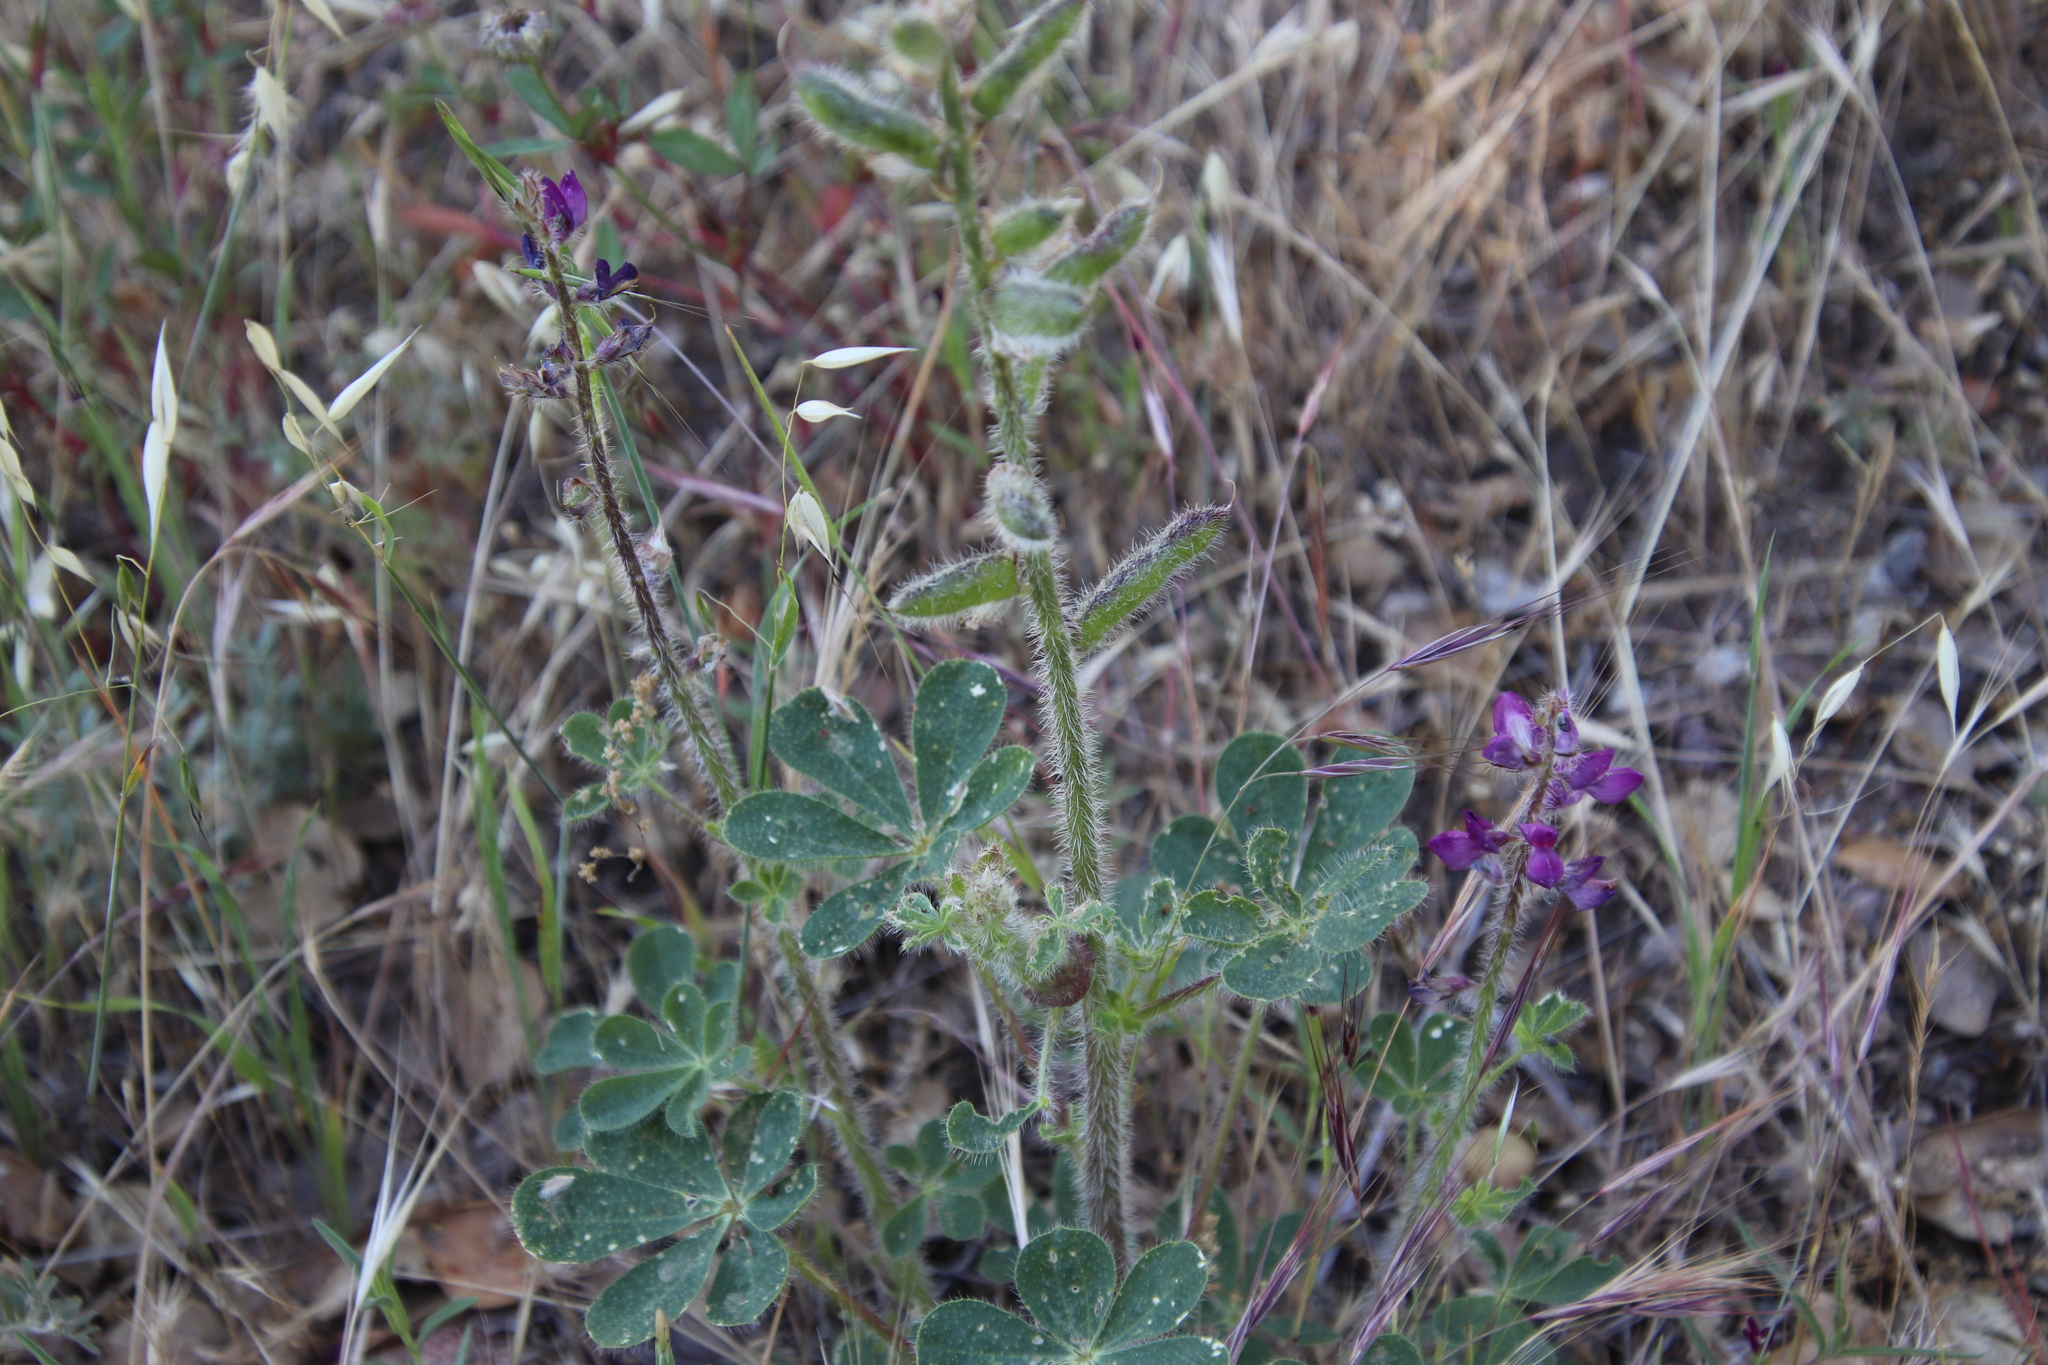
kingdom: Plantae
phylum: Tracheophyta
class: Magnoliopsida
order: Fabales
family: Fabaceae
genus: Lupinus
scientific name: Lupinus hirsutissimus
